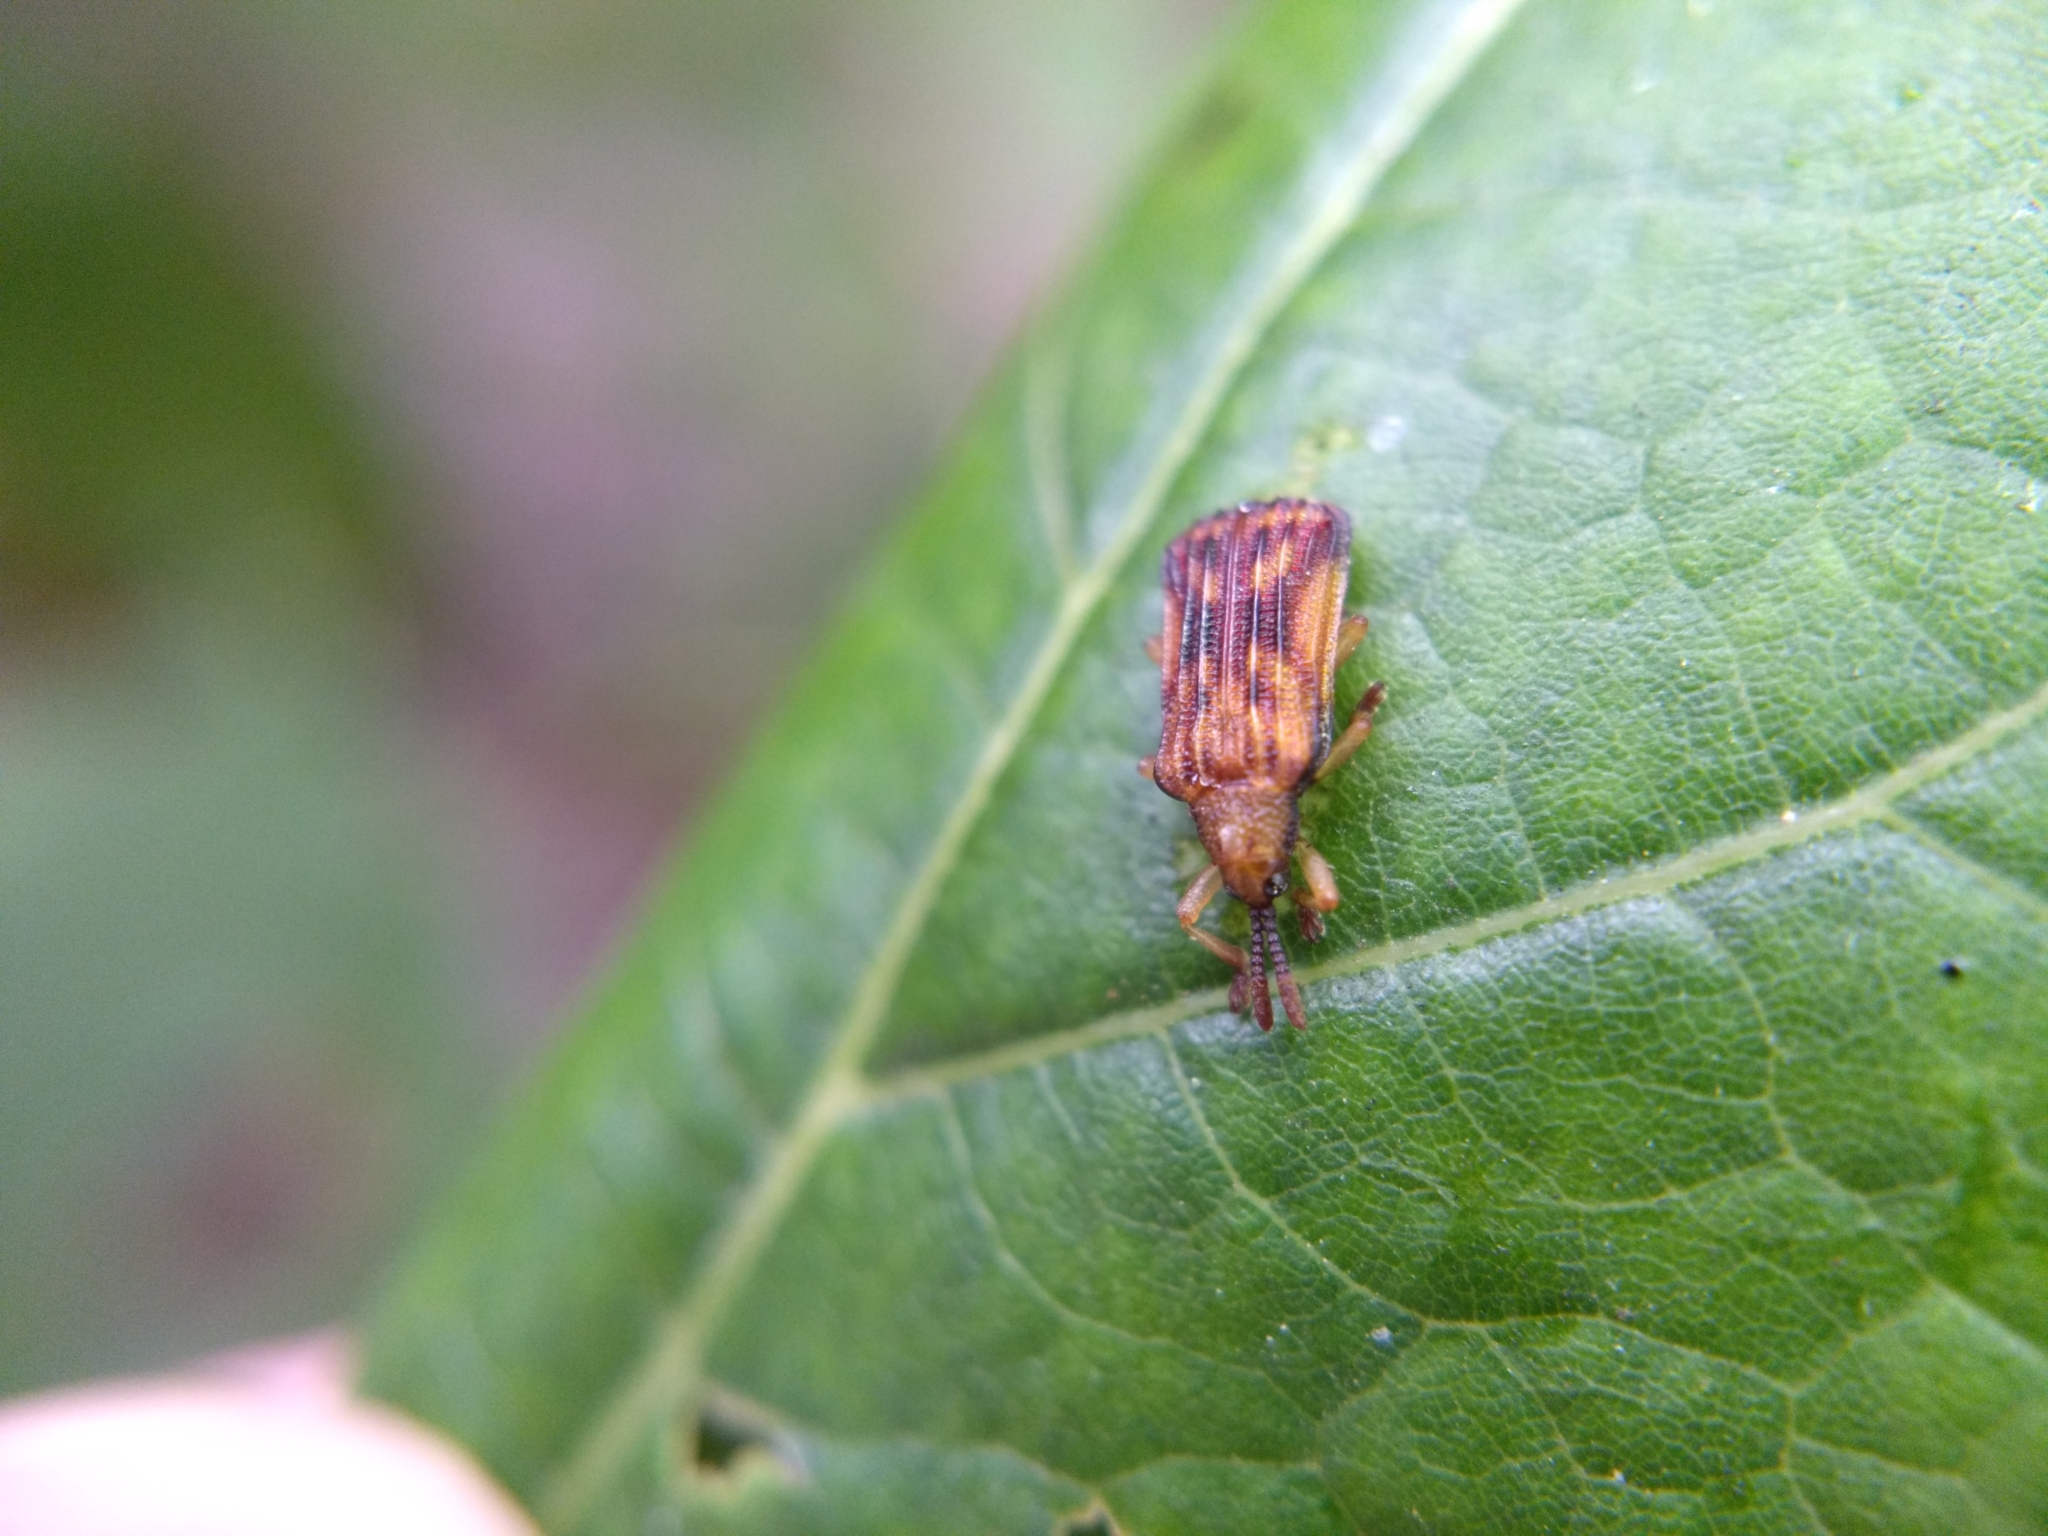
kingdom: Animalia
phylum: Arthropoda
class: Insecta
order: Coleoptera
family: Chrysomelidae
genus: Baliosus
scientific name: Baliosus nervosus
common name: Basswood leaf miner
